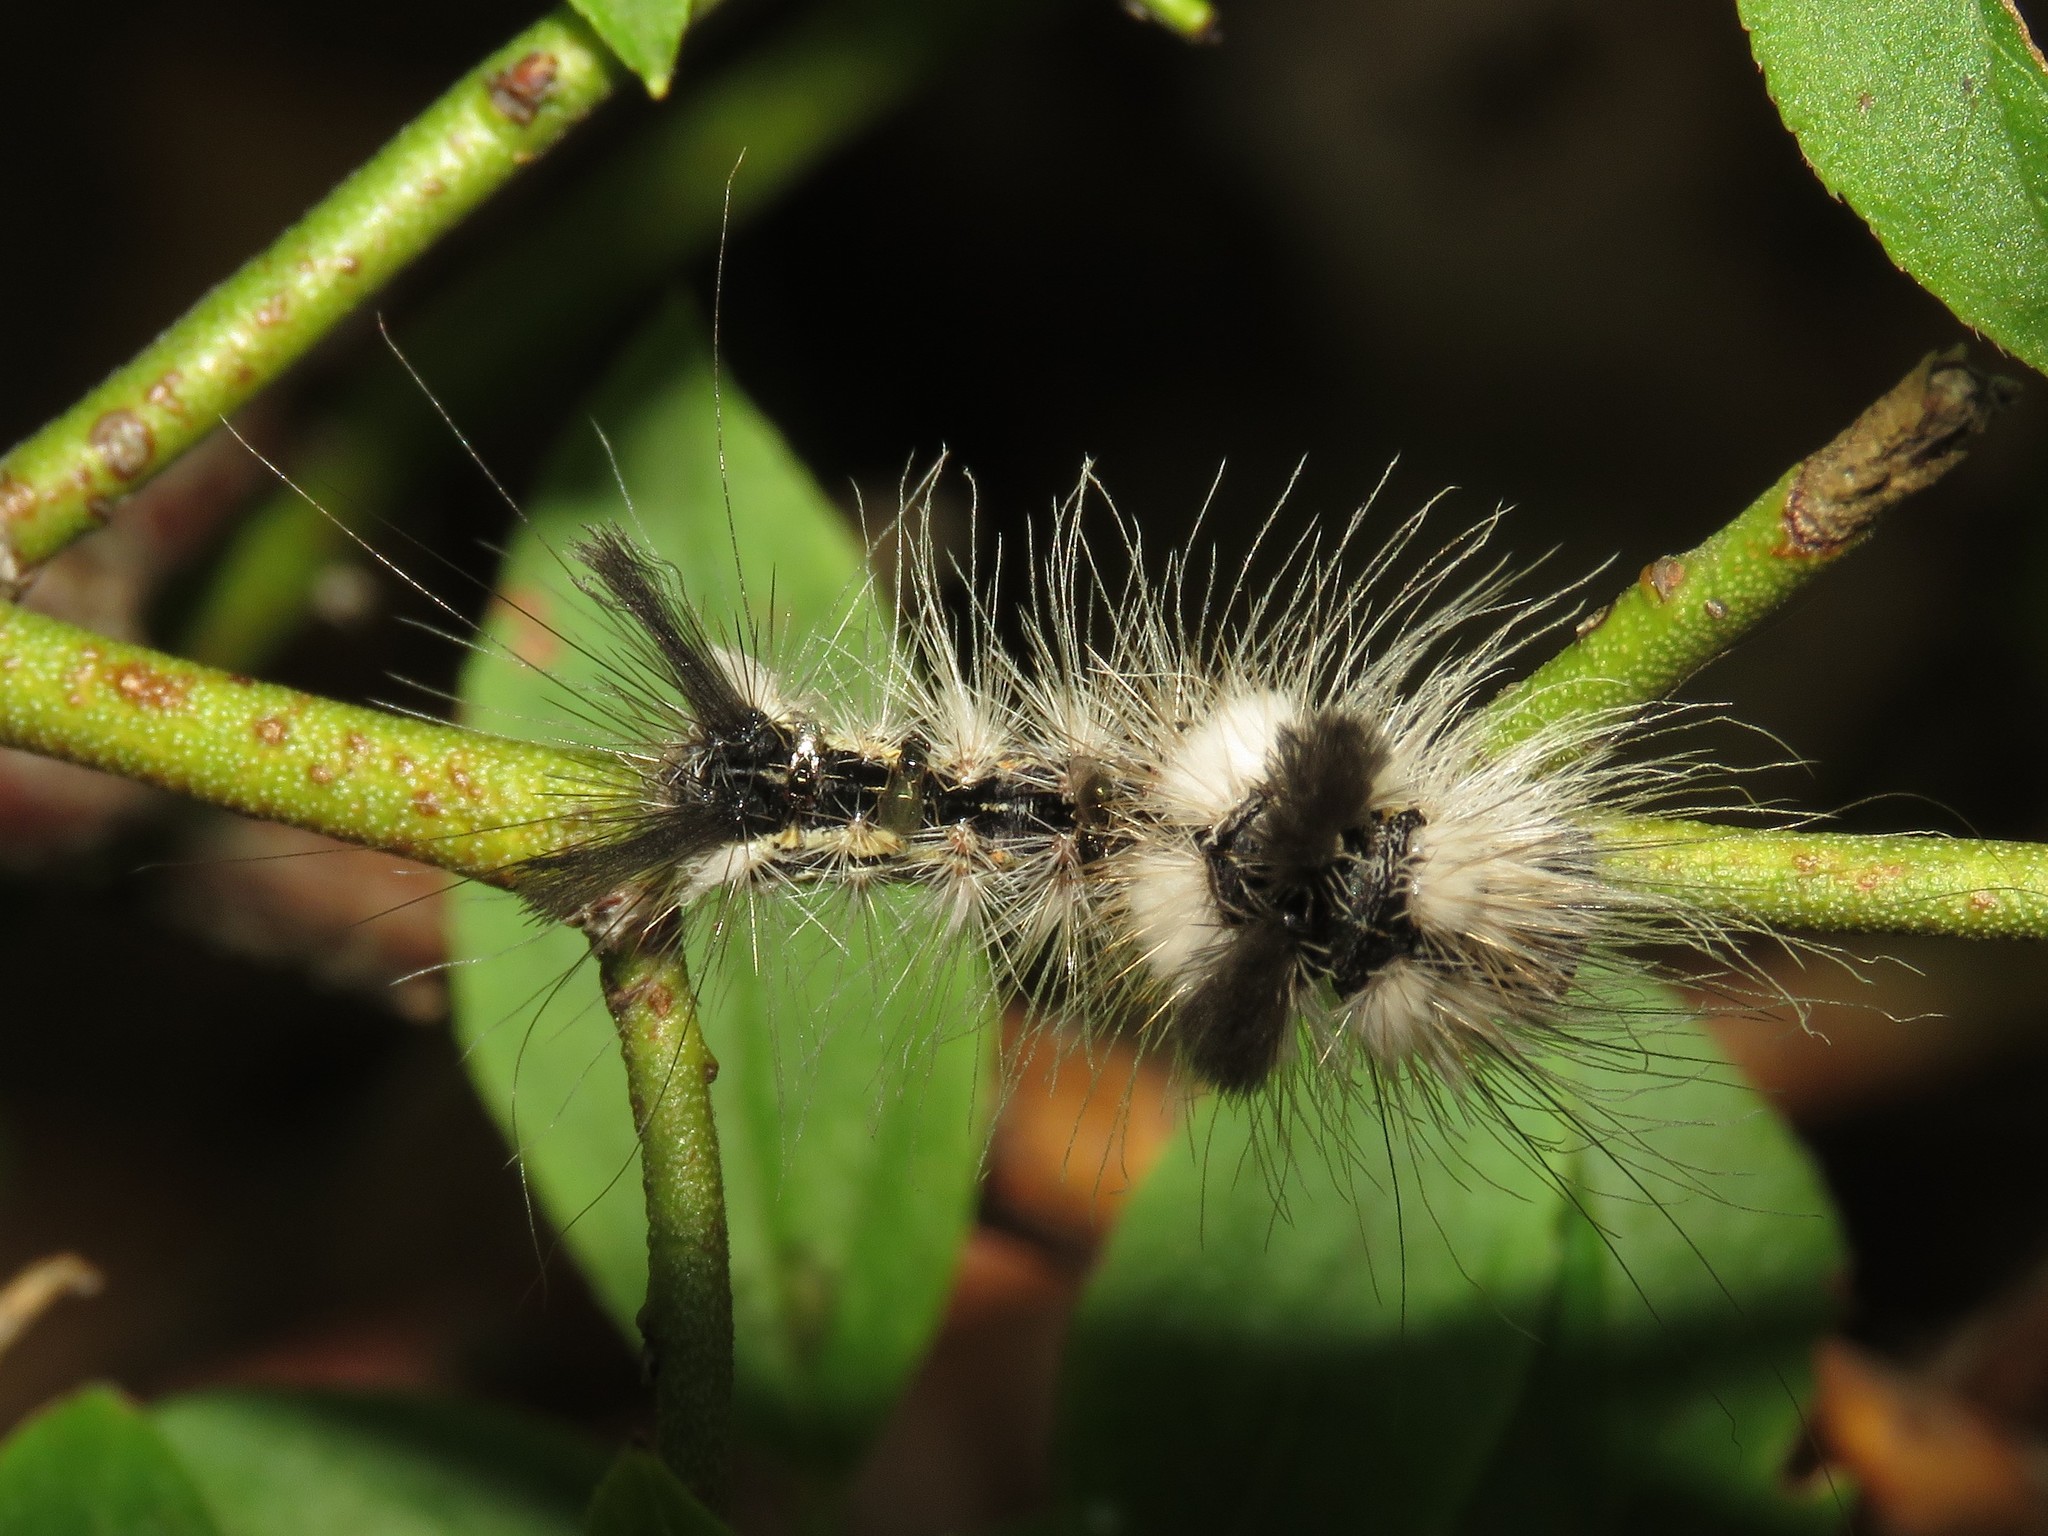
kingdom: Animalia
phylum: Arthropoda
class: Insecta
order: Lepidoptera
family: Noctuidae
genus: Acronicta
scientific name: Acronicta impleta
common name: Powdered dagger
